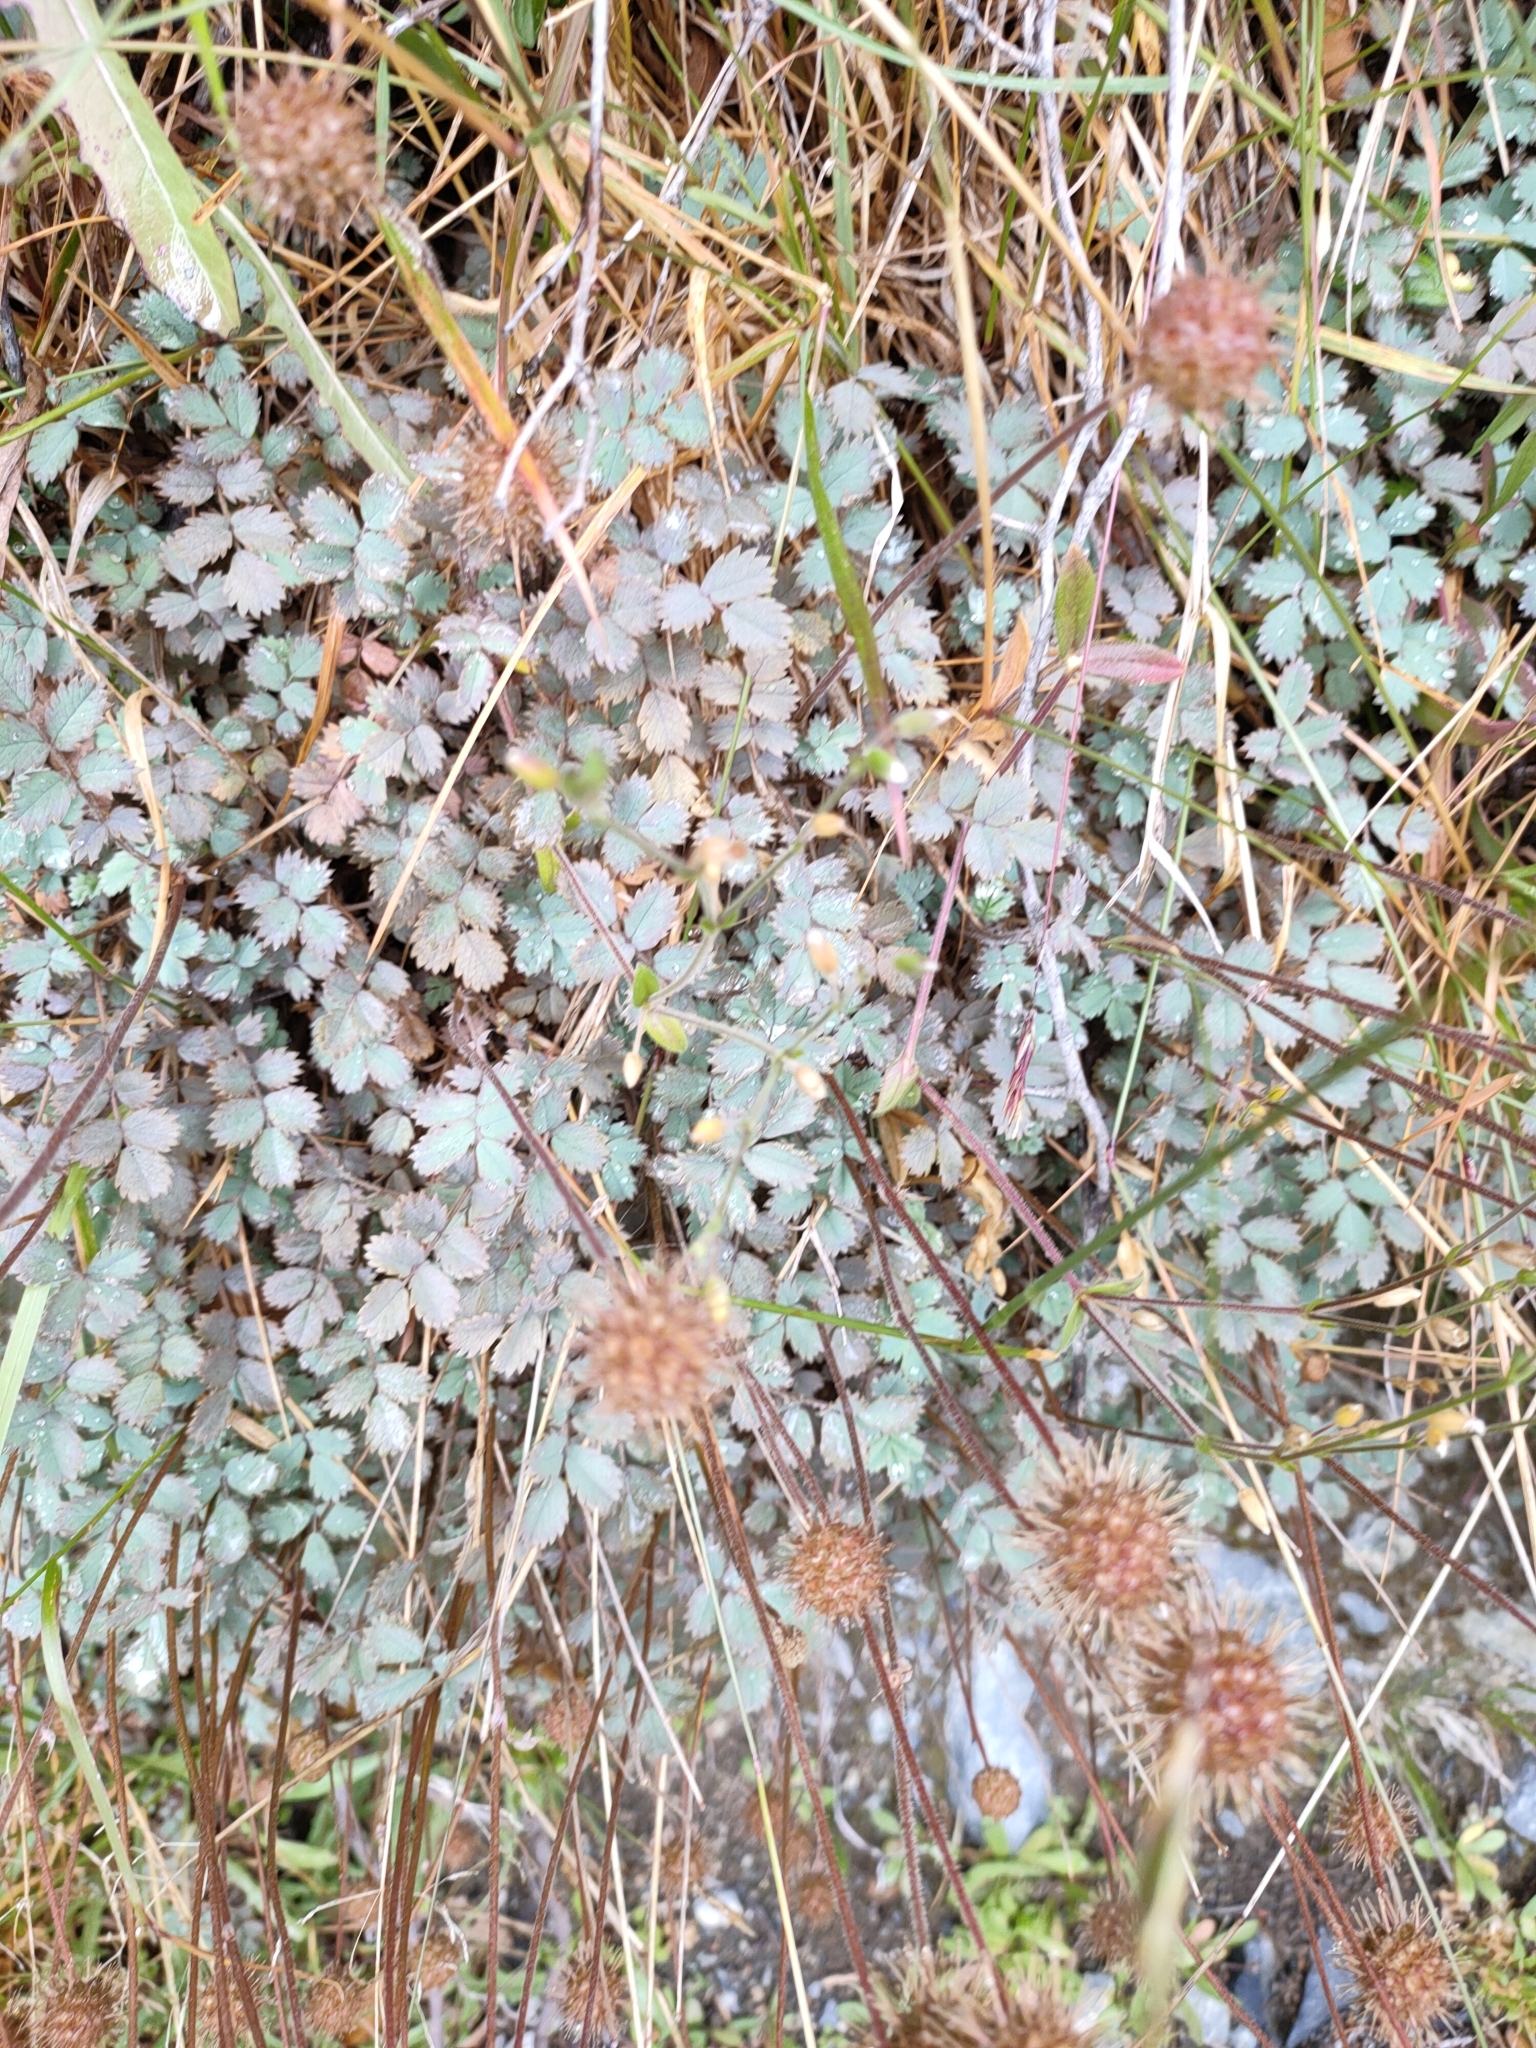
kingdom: Plantae
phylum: Tracheophyta
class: Magnoliopsida
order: Rosales
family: Rosaceae
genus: Acaena
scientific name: Acaena caesiiglauca
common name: Glaucous pirri-pirri-bur
